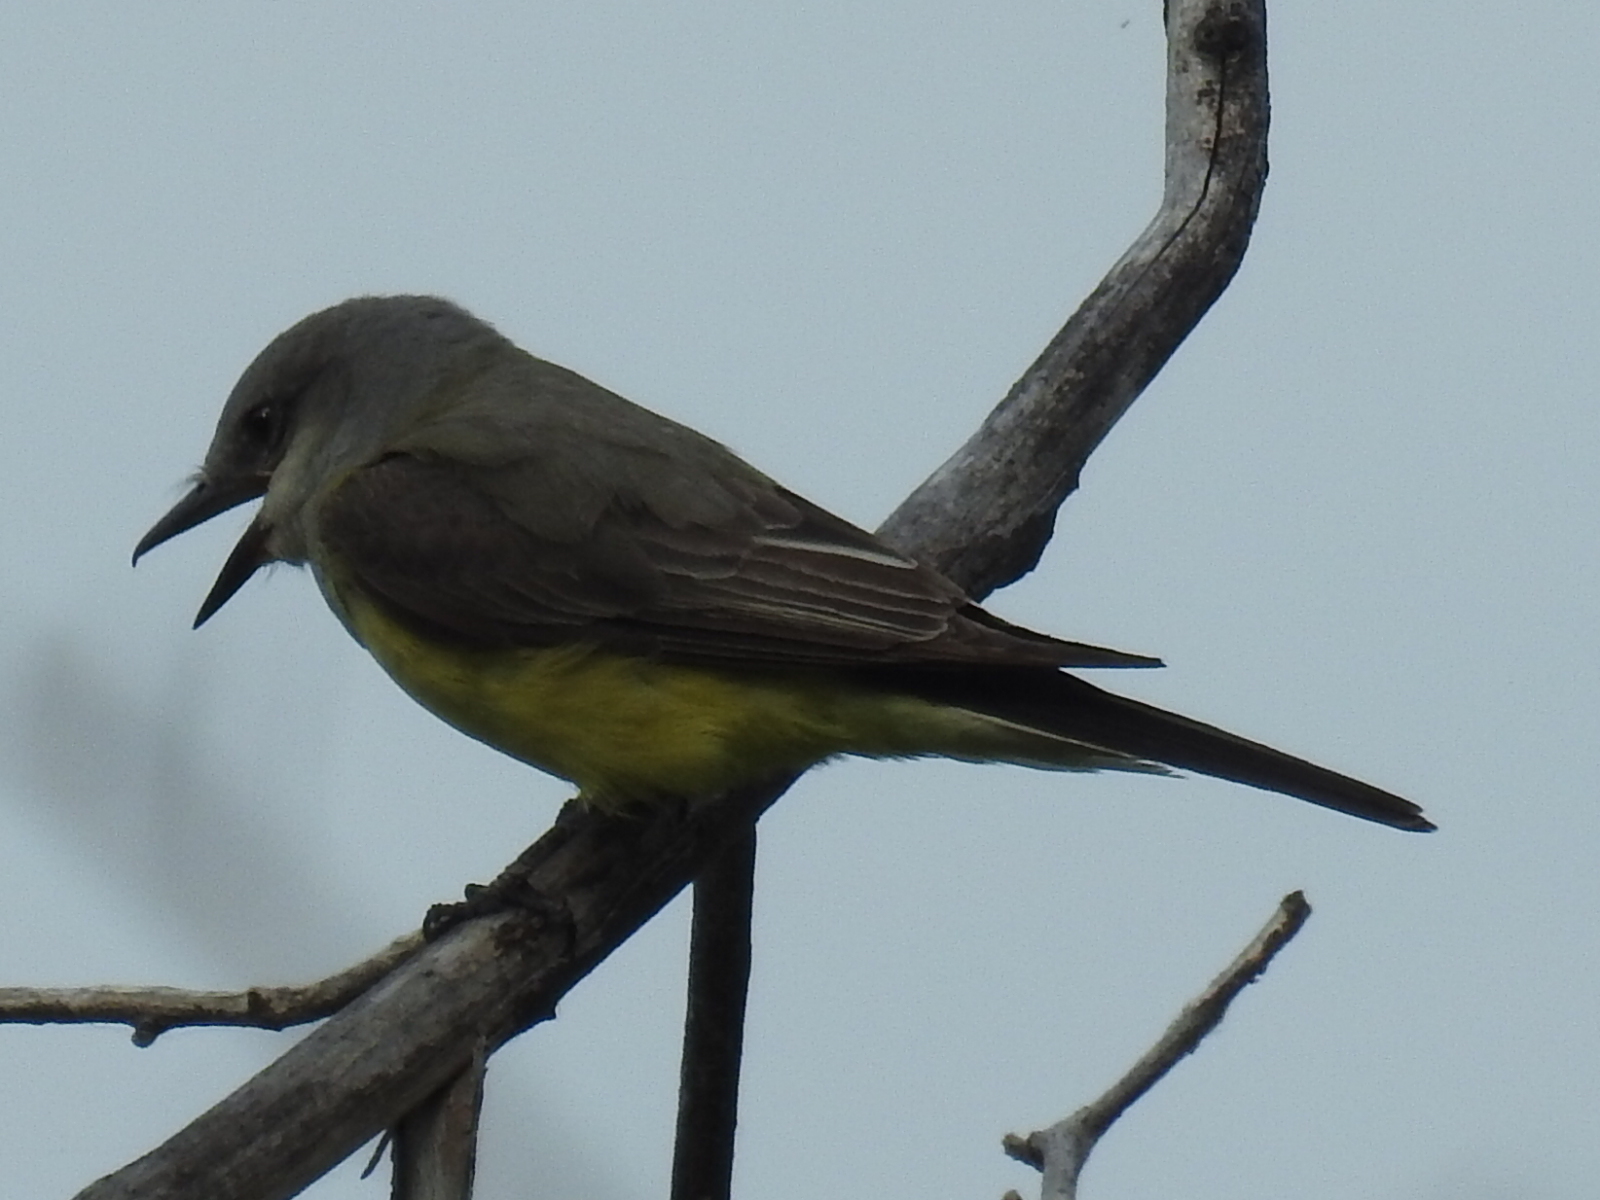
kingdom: Animalia
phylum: Chordata
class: Aves
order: Passeriformes
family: Tyrannidae
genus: Tyrannus
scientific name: Tyrannus verticalis
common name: Western kingbird
